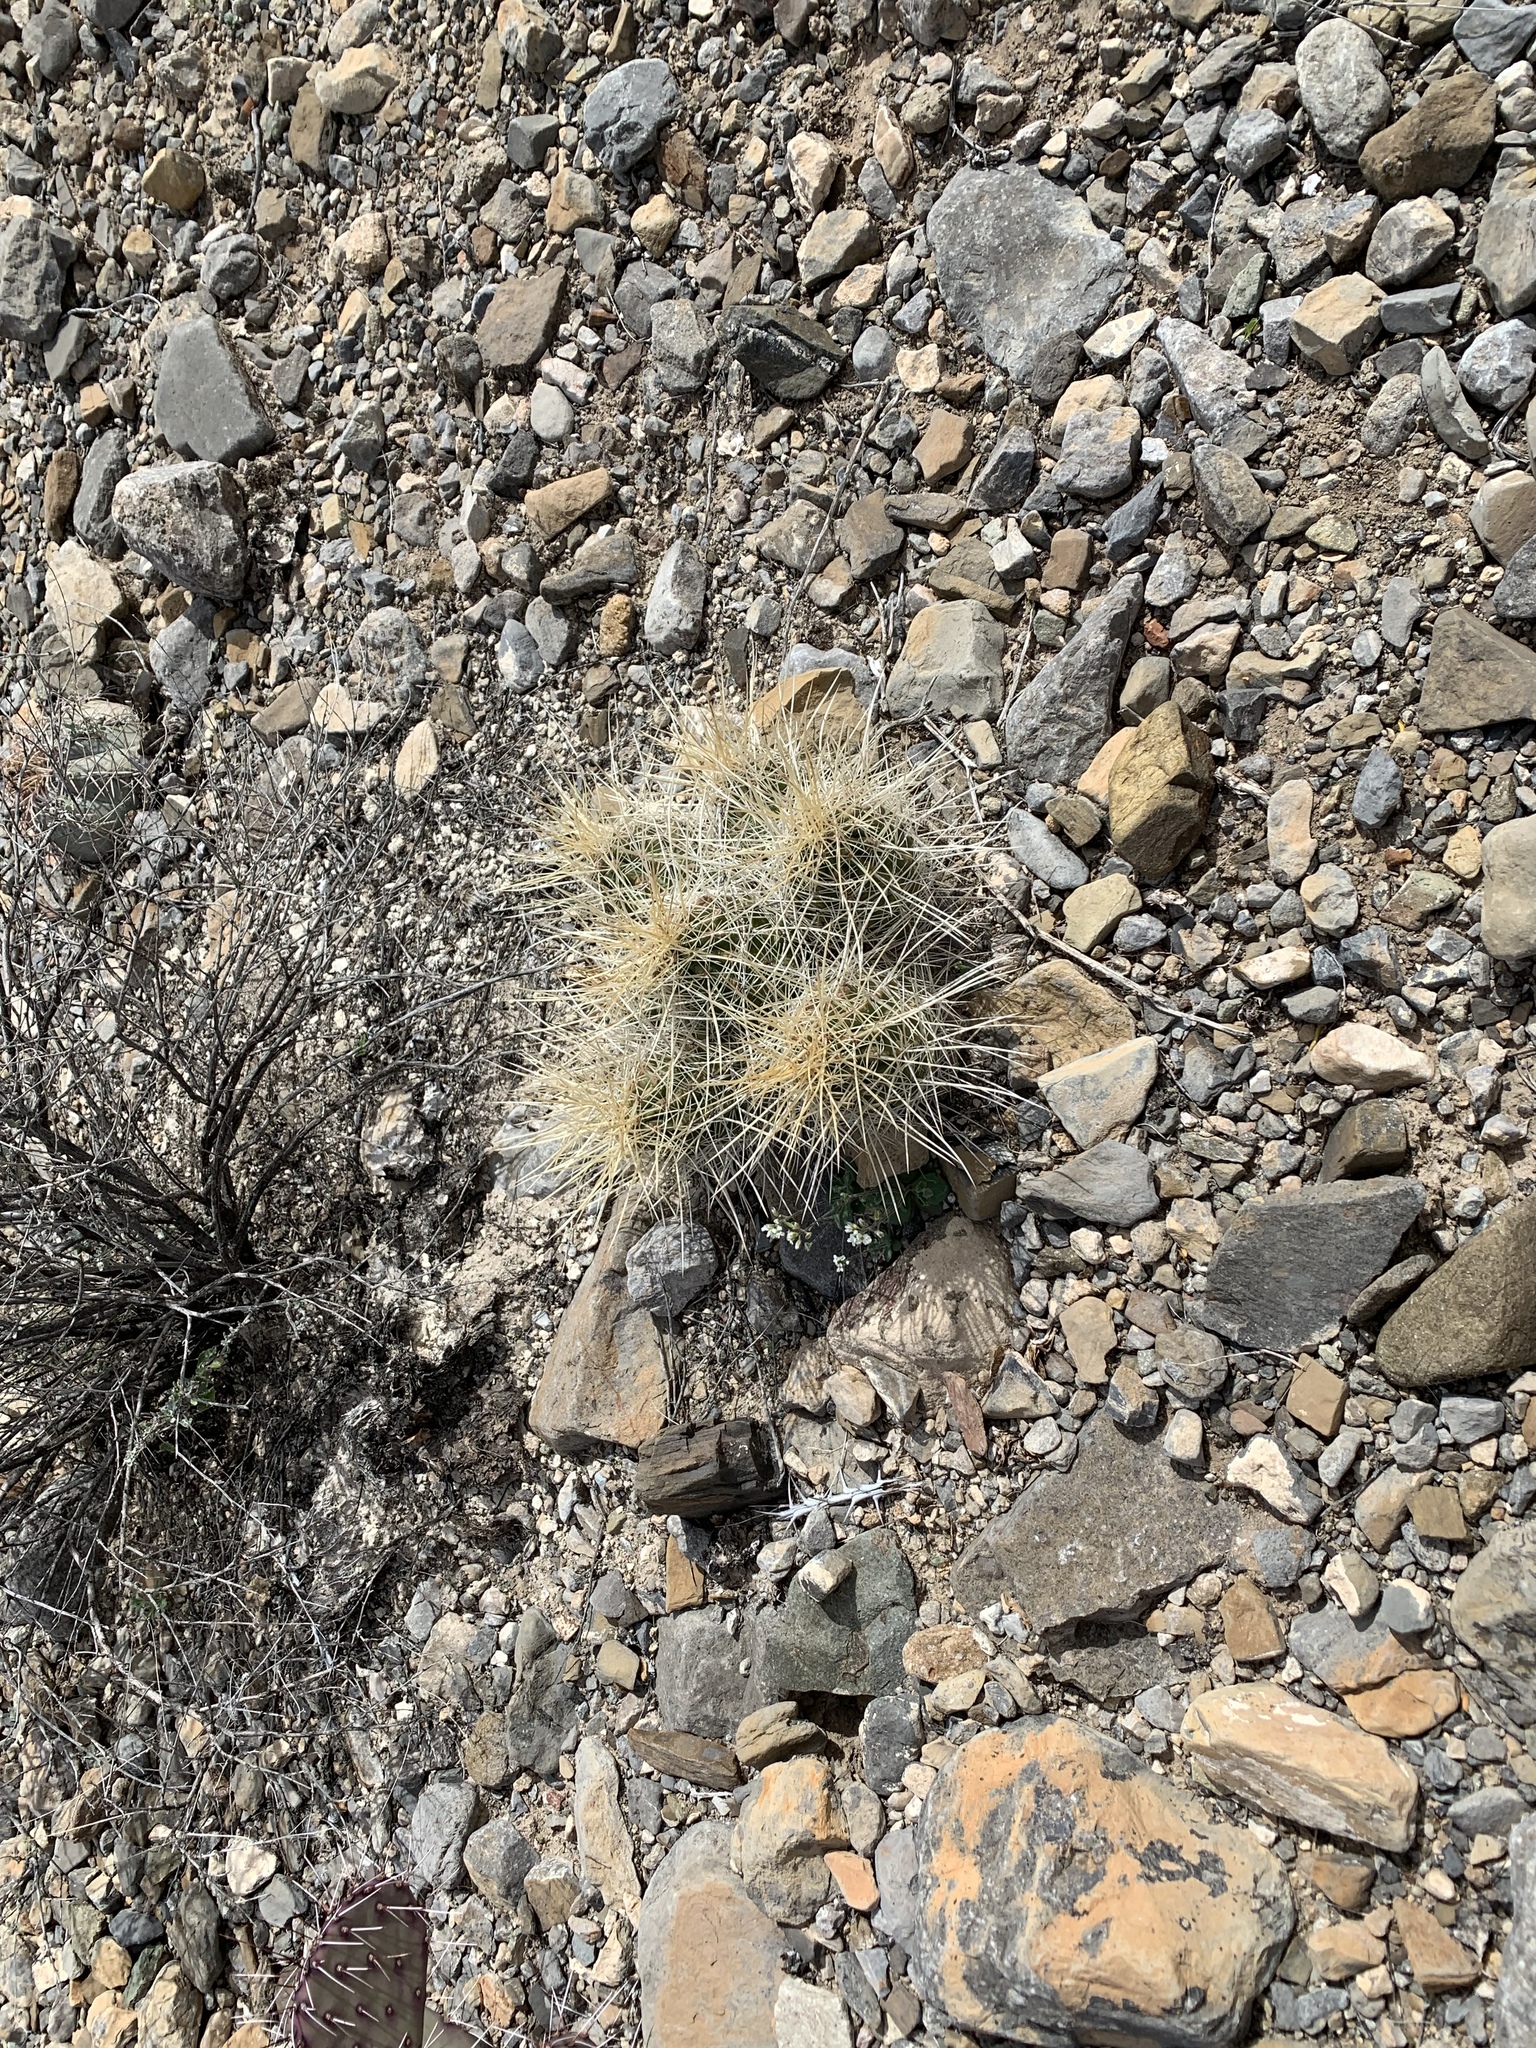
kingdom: Plantae
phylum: Tracheophyta
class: Magnoliopsida
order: Caryophyllales
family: Cactaceae
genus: Echinocereus
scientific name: Echinocereus stramineus
